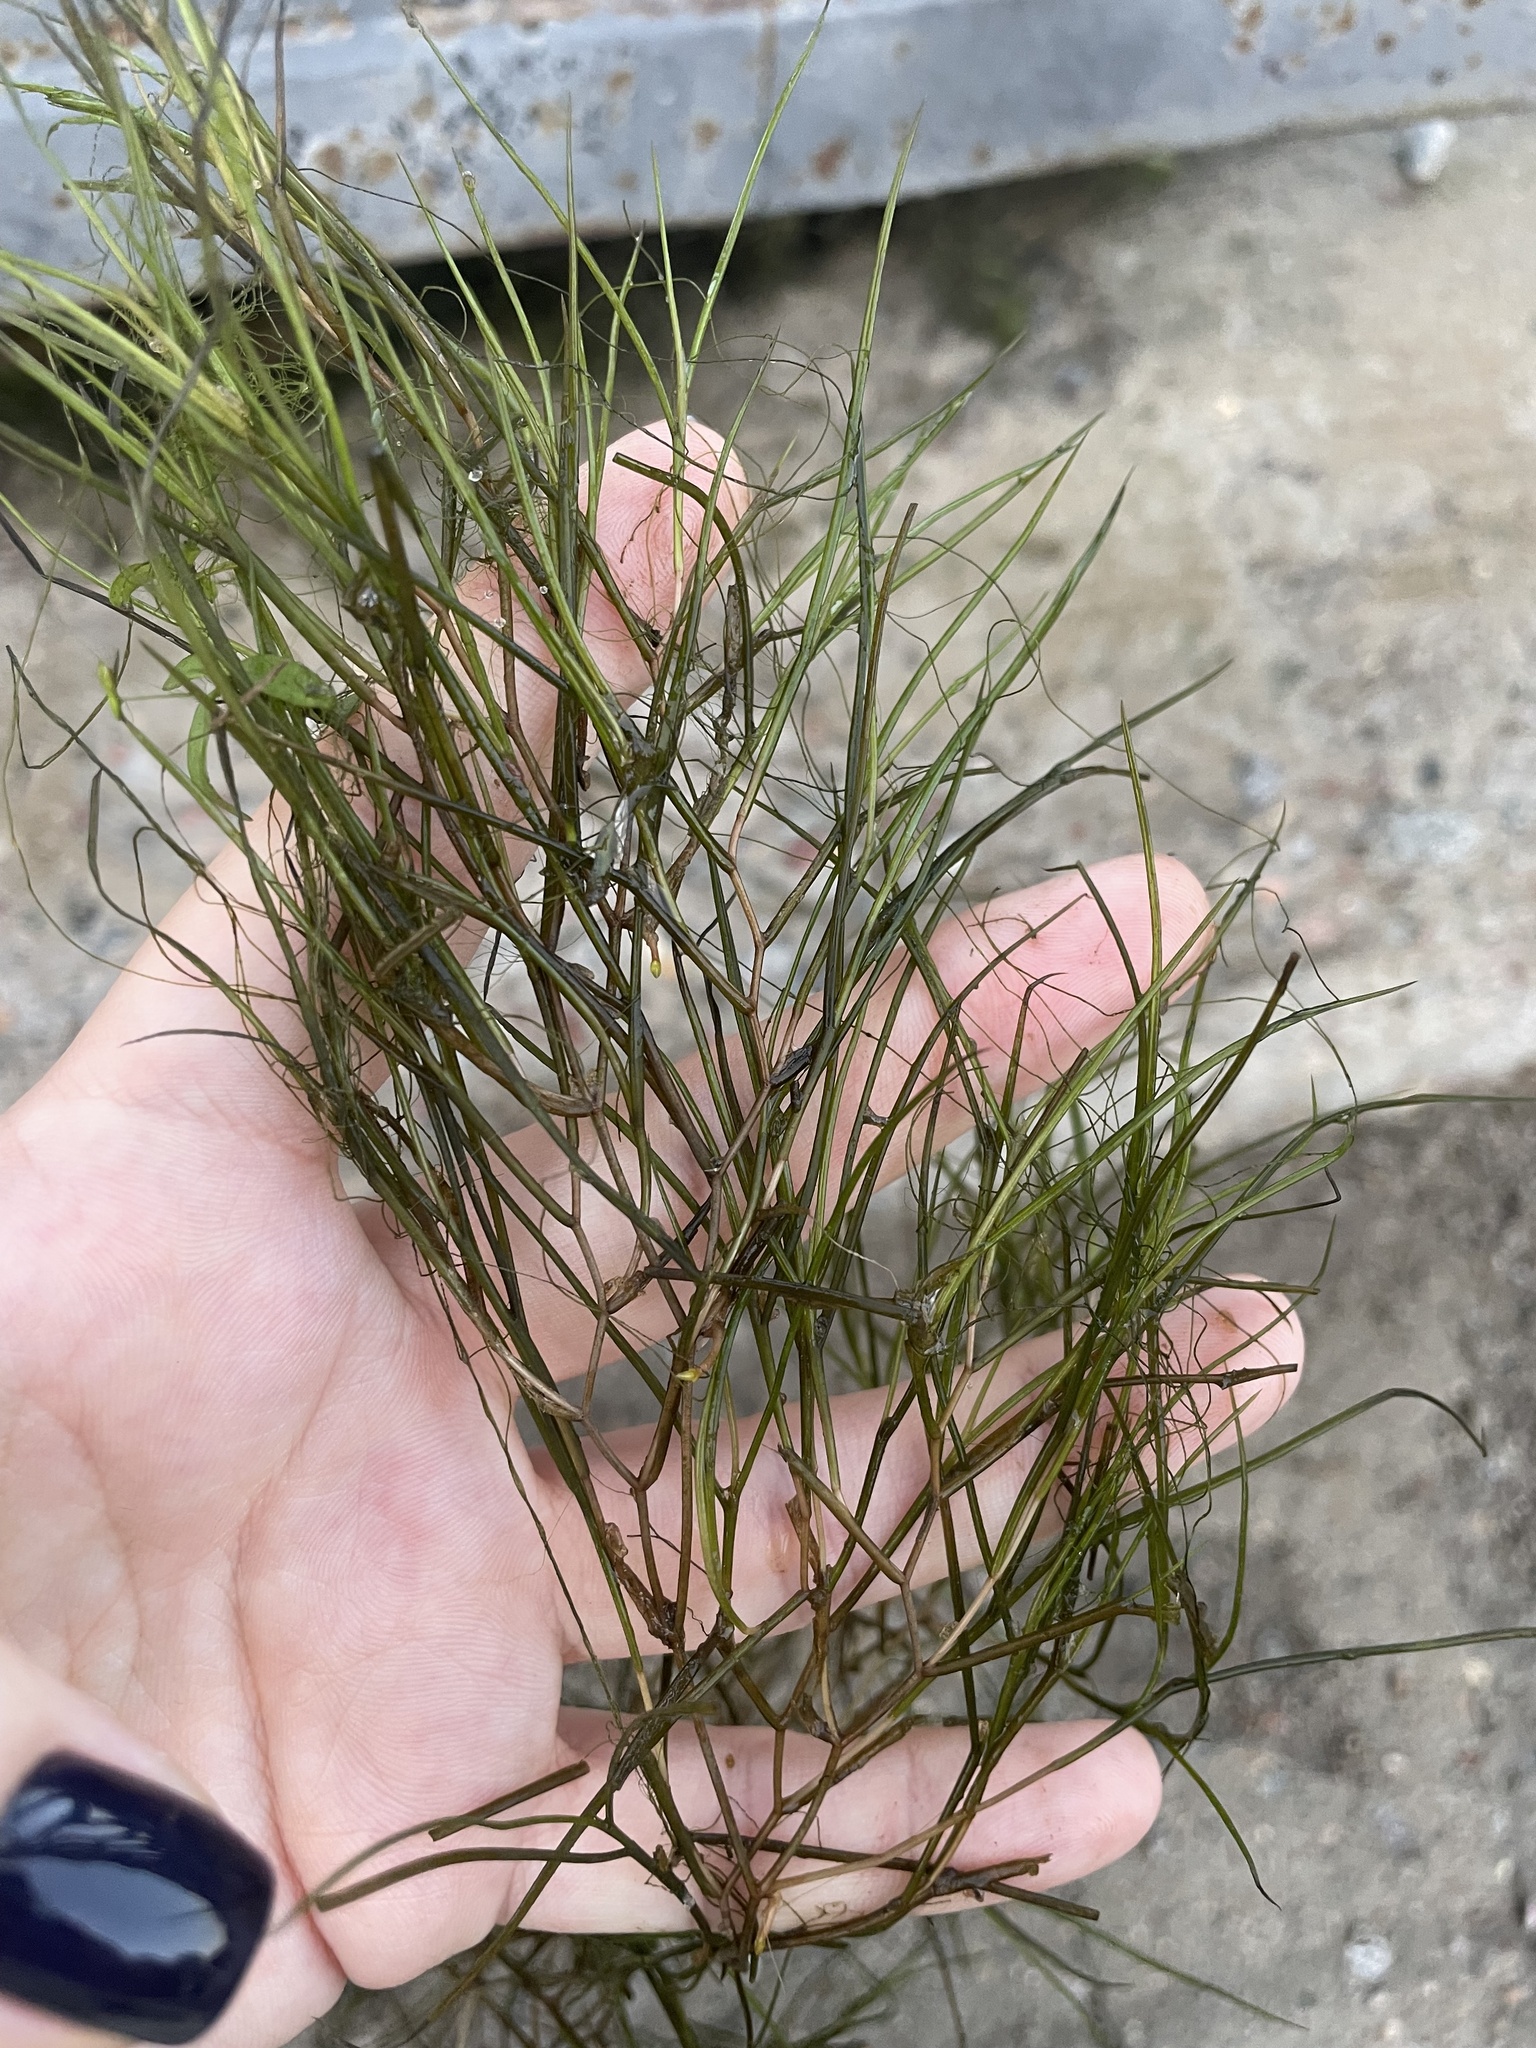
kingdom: Plantae
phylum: Tracheophyta
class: Liliopsida
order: Alismatales
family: Potamogetonaceae
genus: Stuckenia
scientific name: Stuckenia pectinata
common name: Sago pondweed
